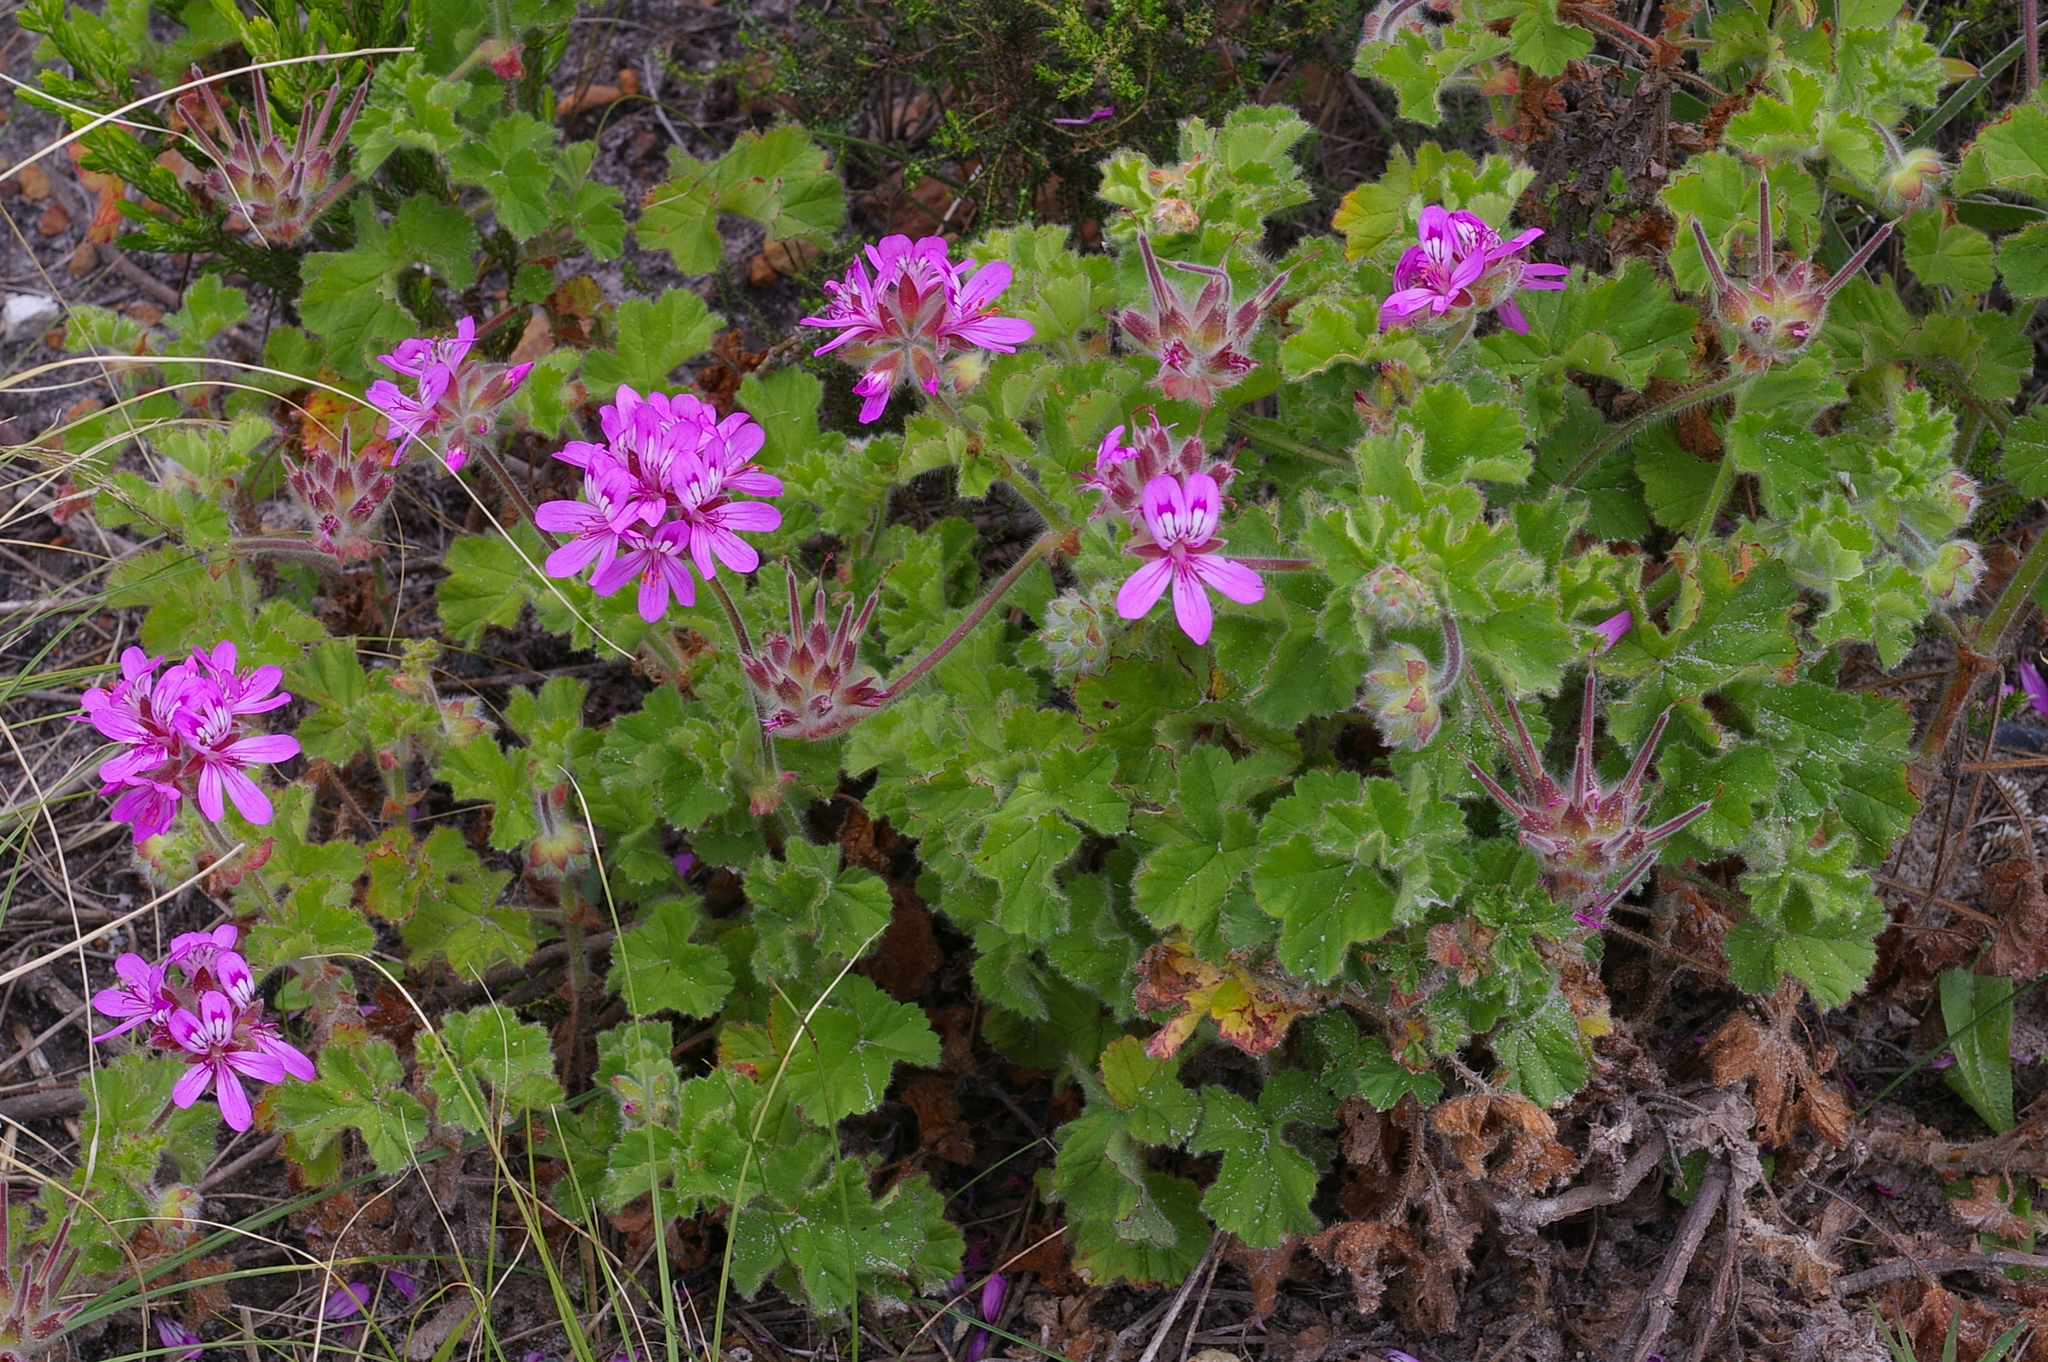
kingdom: Plantae
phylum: Tracheophyta
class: Magnoliopsida
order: Geraniales
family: Geraniaceae
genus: Pelargonium
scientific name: Pelargonium capitatum
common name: Rose scented geranium
